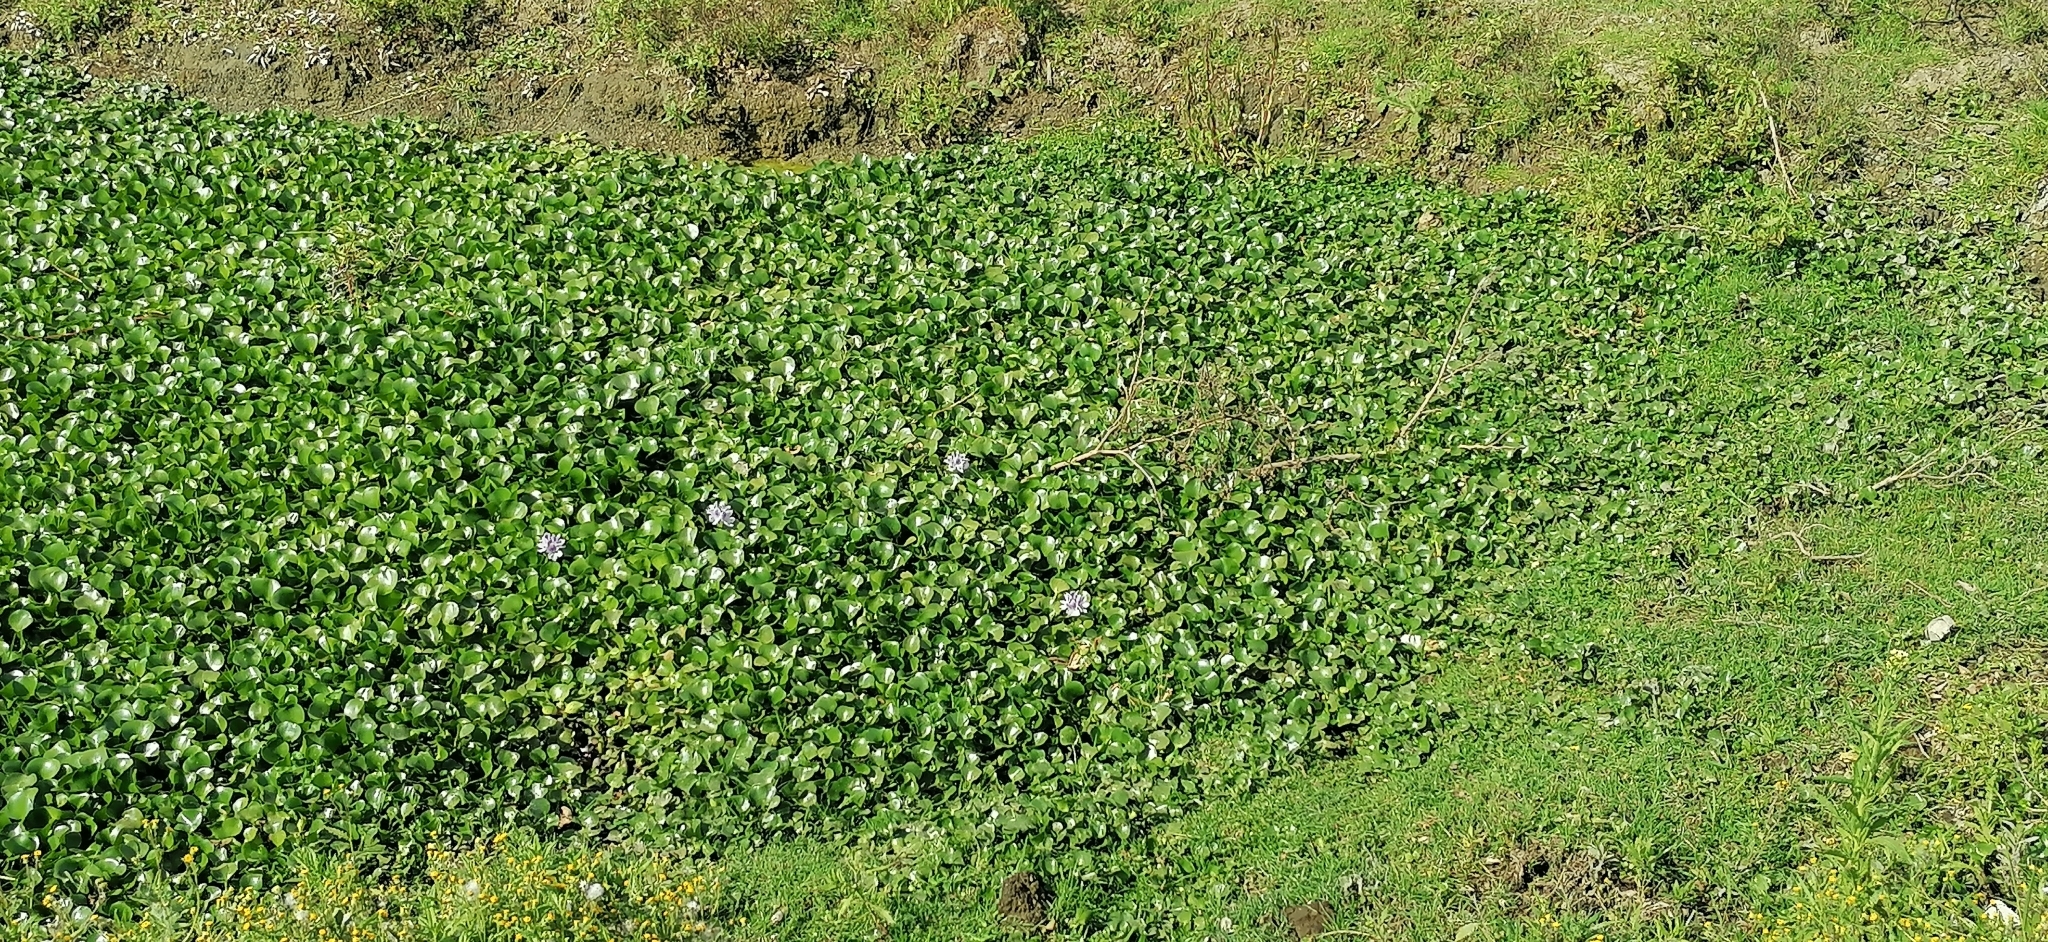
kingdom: Plantae
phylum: Tracheophyta
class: Liliopsida
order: Commelinales
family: Pontederiaceae
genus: Pontederia
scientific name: Pontederia crassipes
